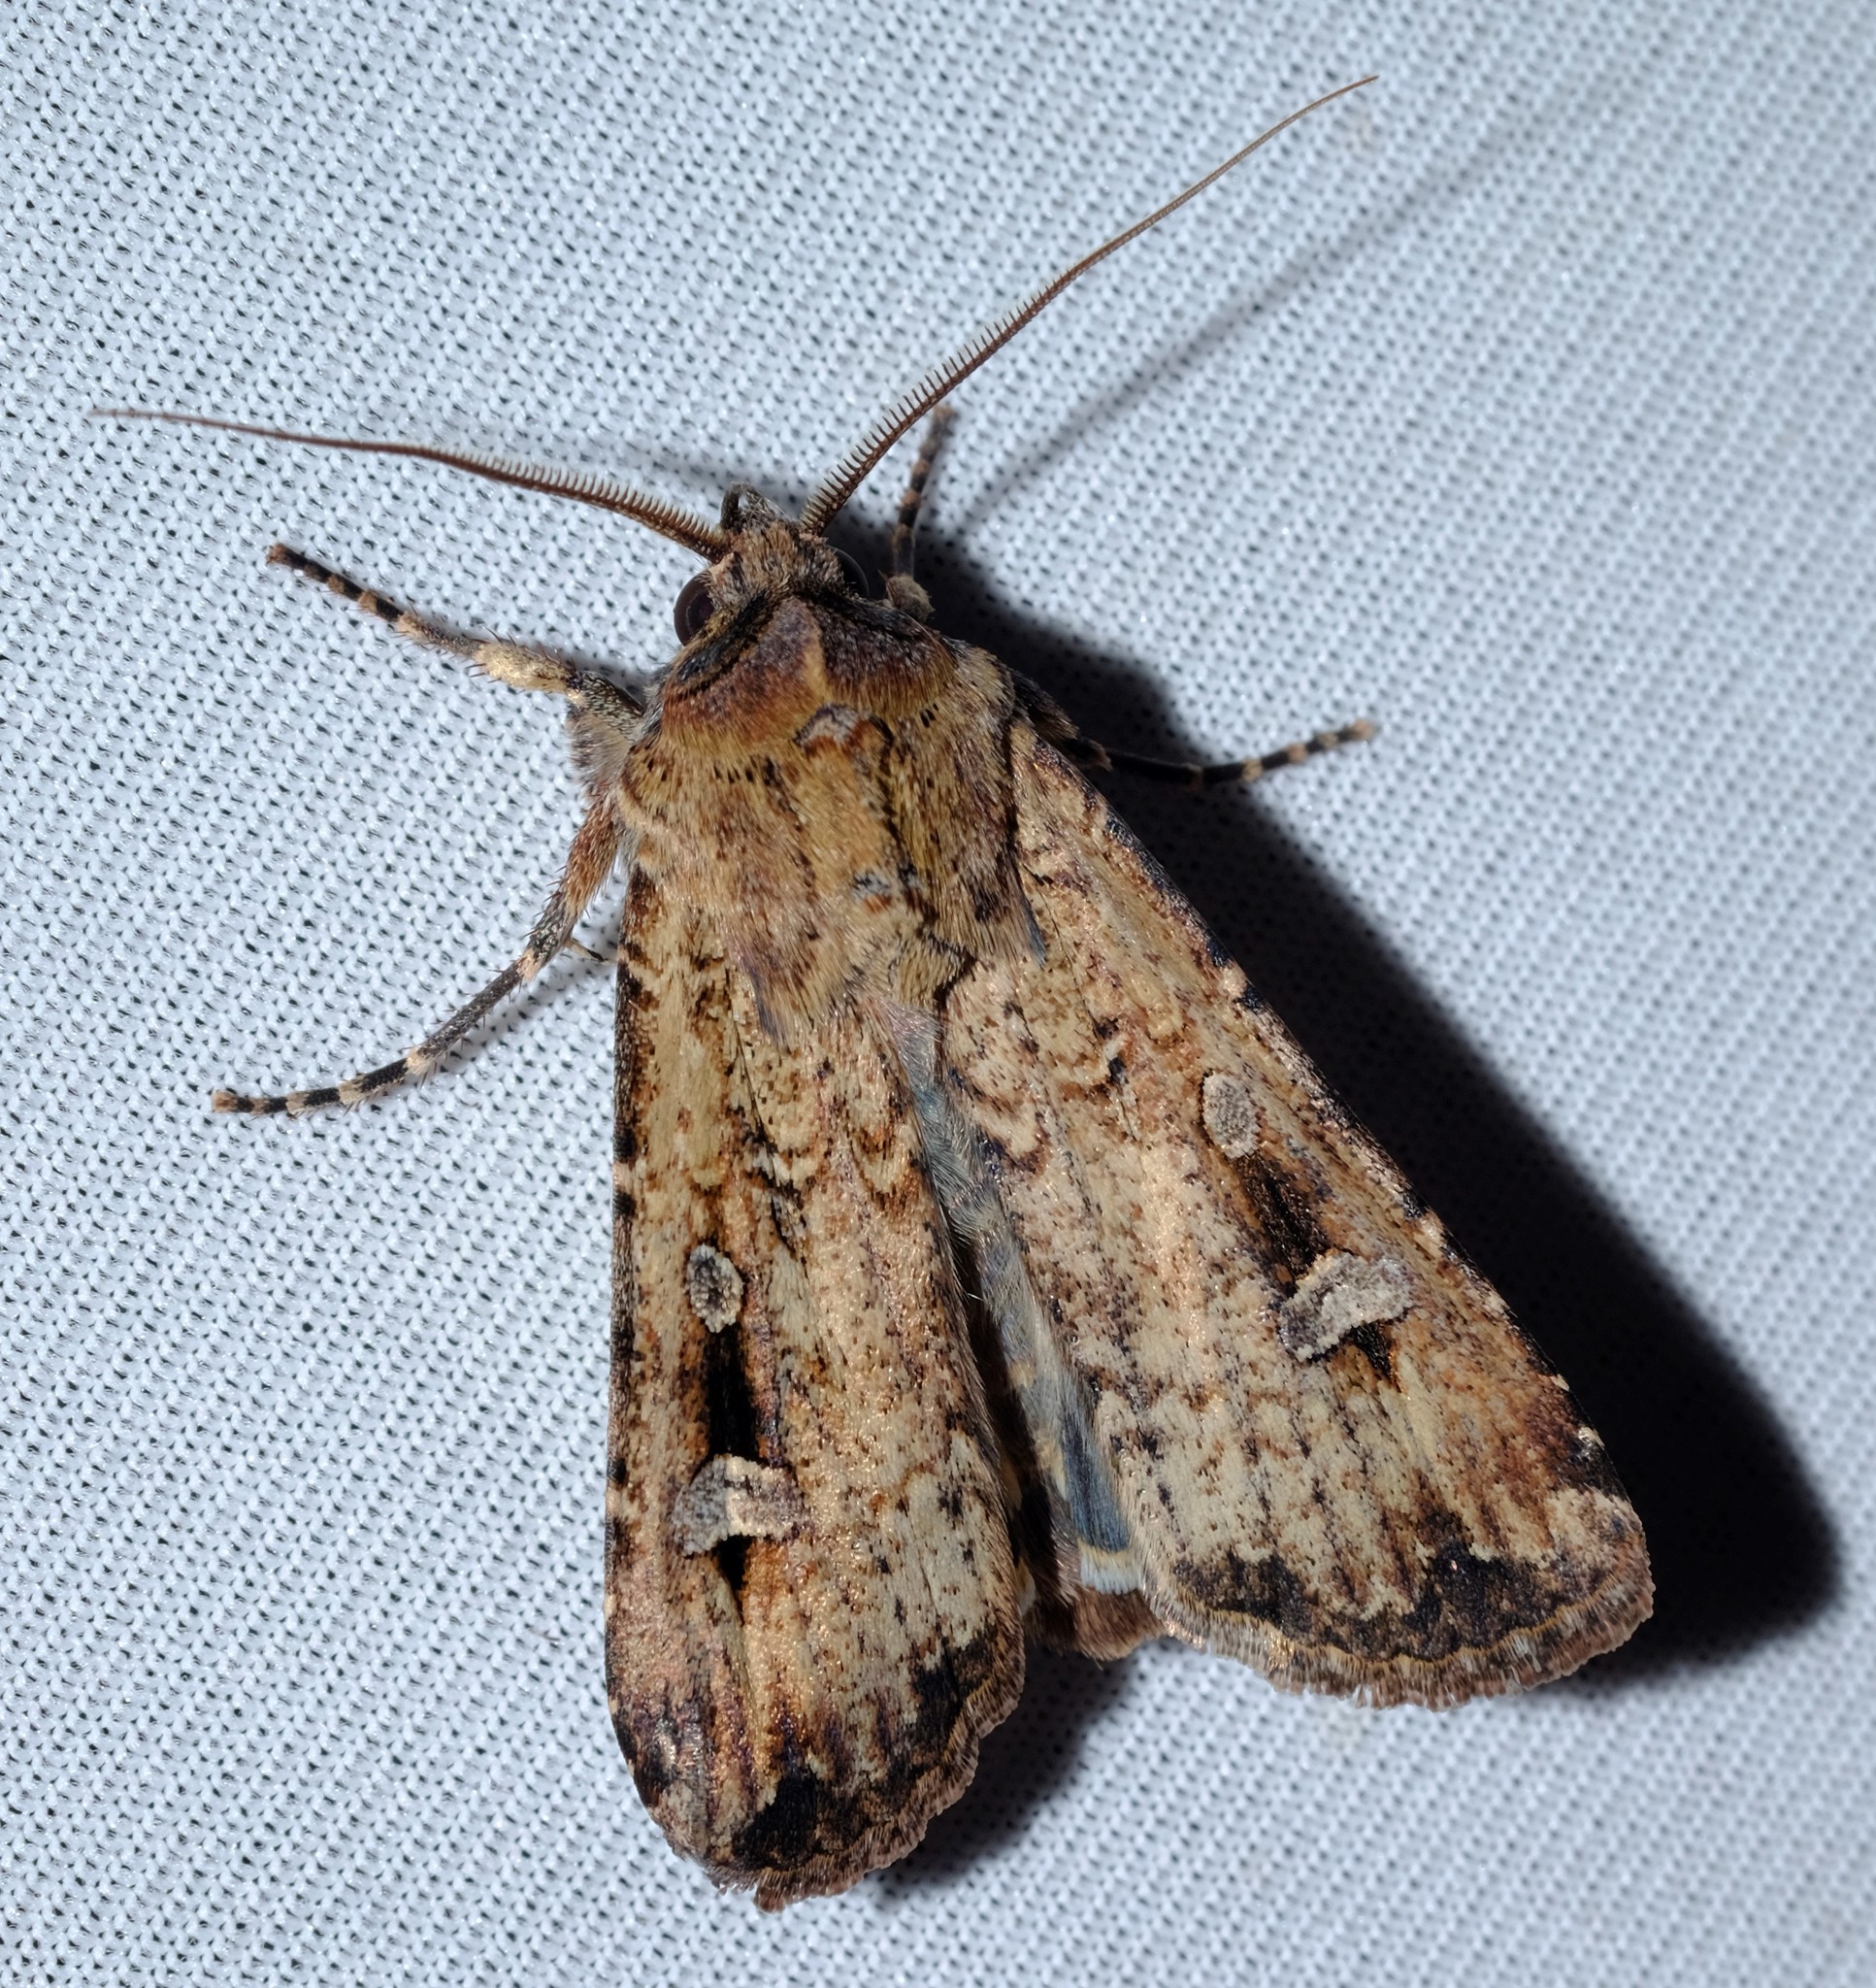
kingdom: Animalia
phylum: Arthropoda
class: Insecta
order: Lepidoptera
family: Noctuidae
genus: Agrotis
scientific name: Agrotis infusa
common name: Bogong moth
